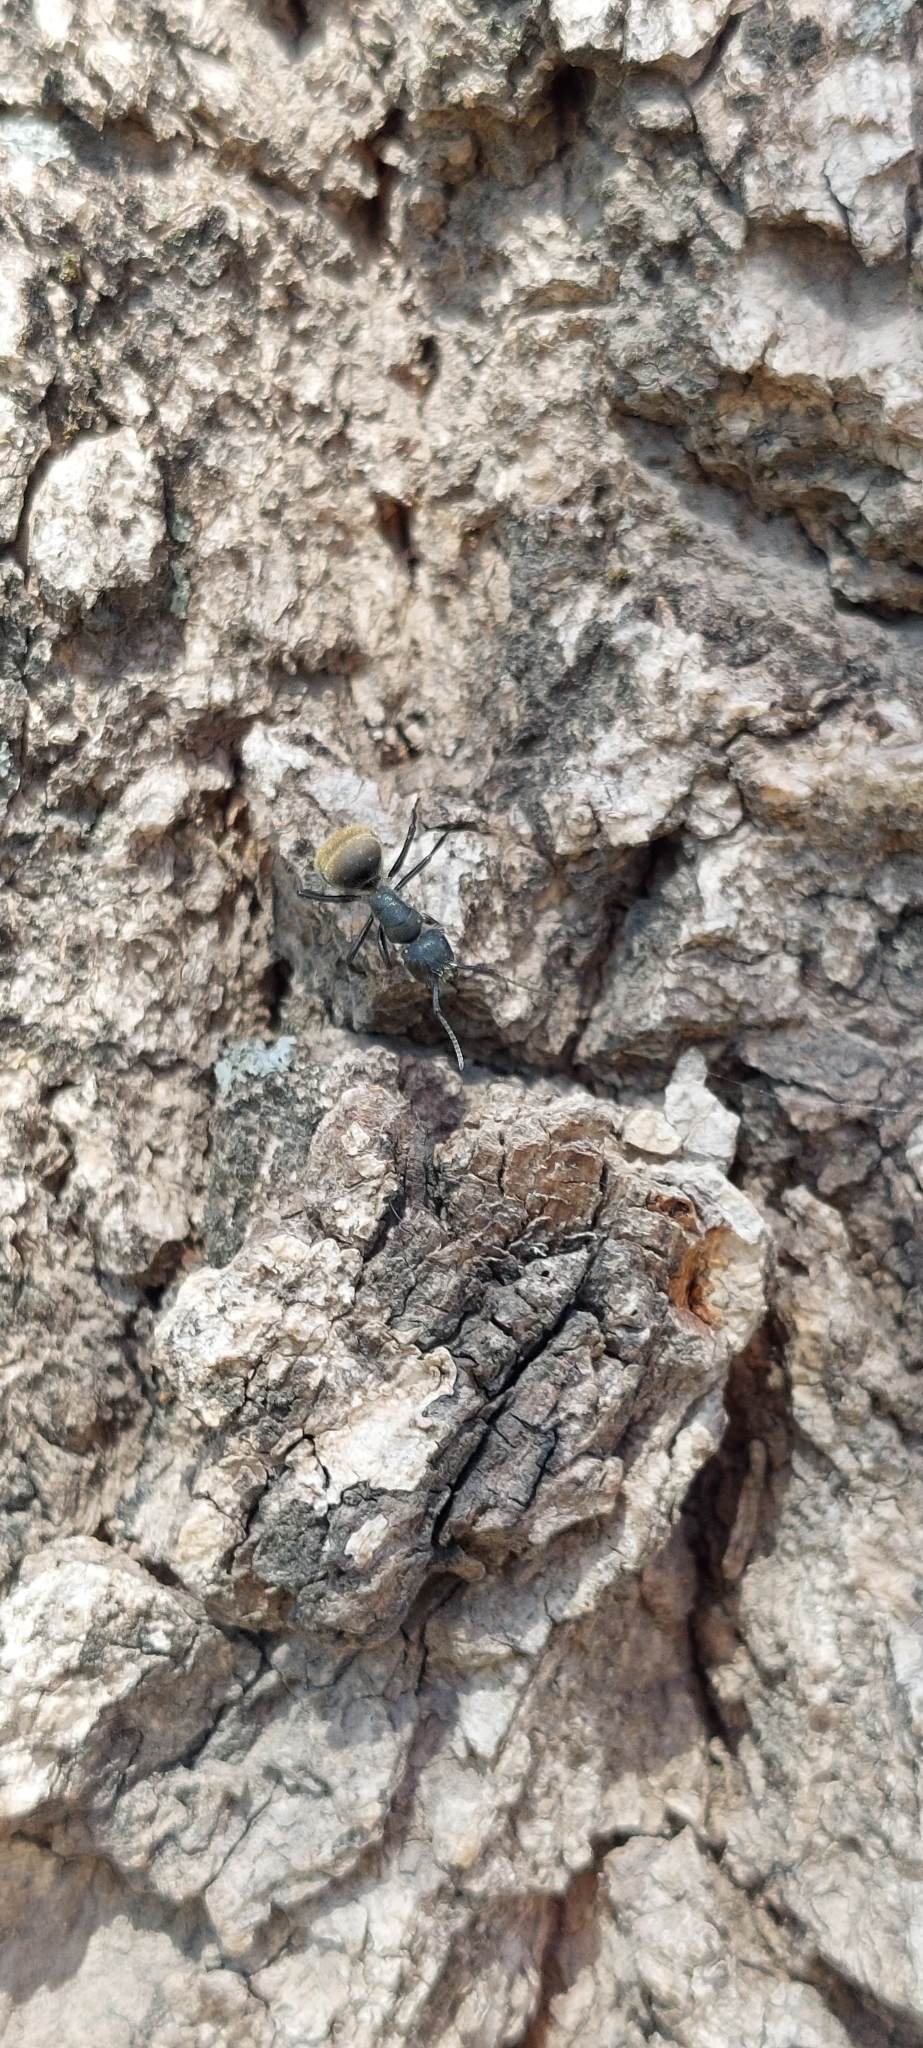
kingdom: Animalia
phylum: Arthropoda
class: Insecta
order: Hymenoptera
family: Formicidae
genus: Camponotus
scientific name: Camponotus mus
